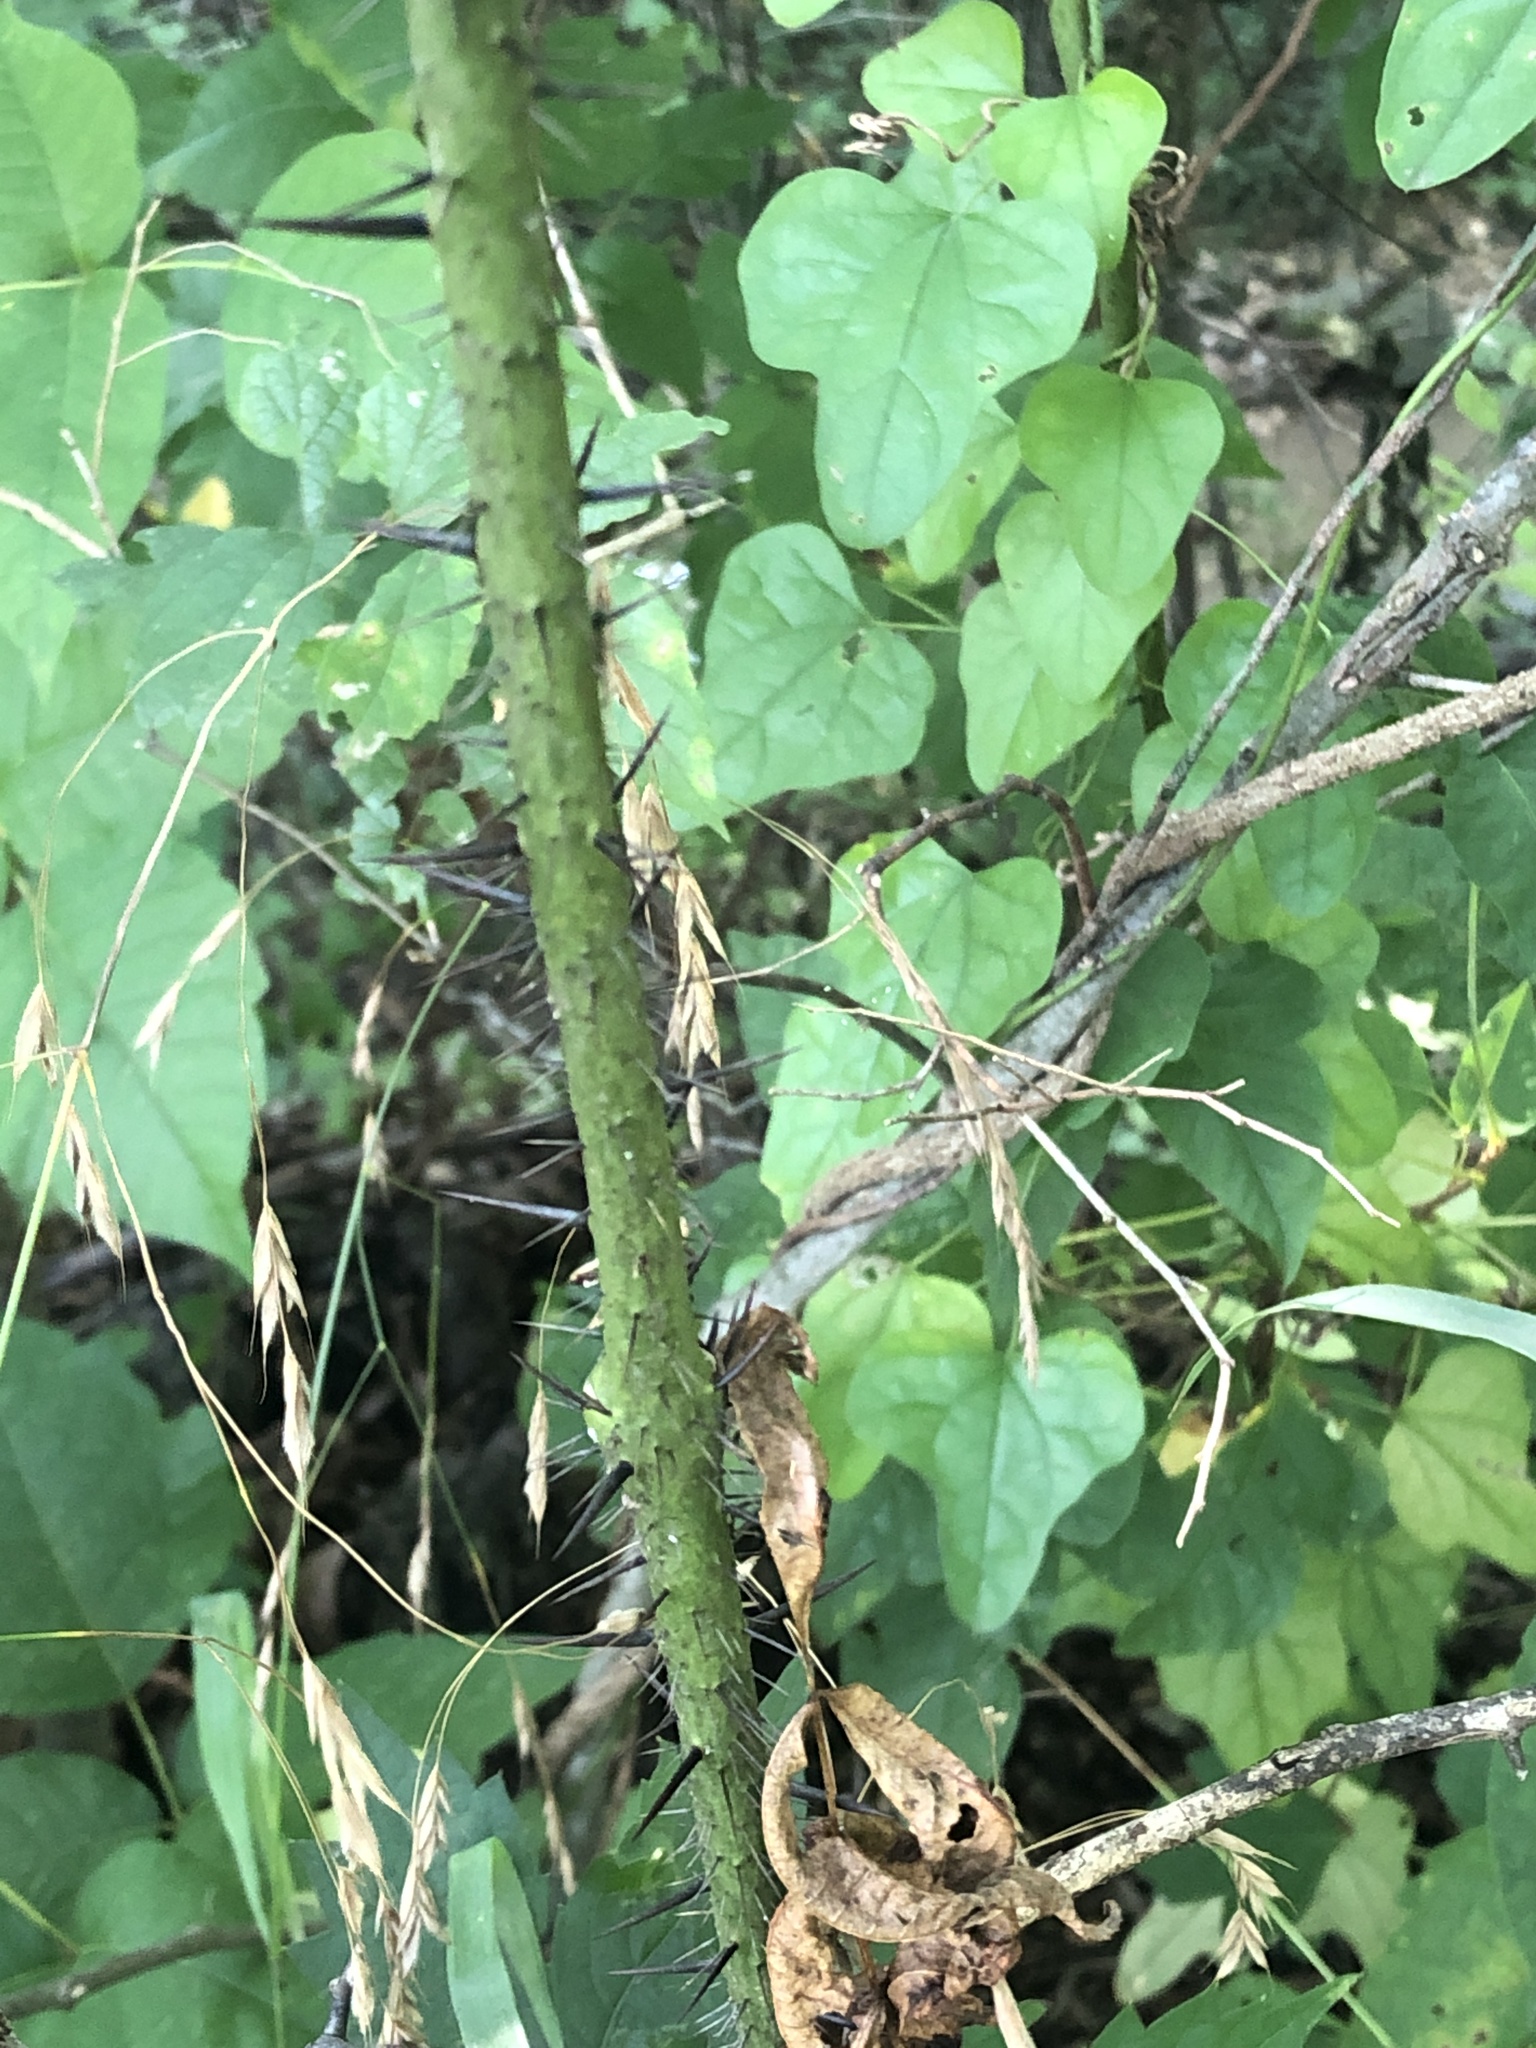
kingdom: Plantae
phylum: Tracheophyta
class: Liliopsida
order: Liliales
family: Smilacaceae
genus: Smilax
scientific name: Smilax tamnoides
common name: Hellfetter
